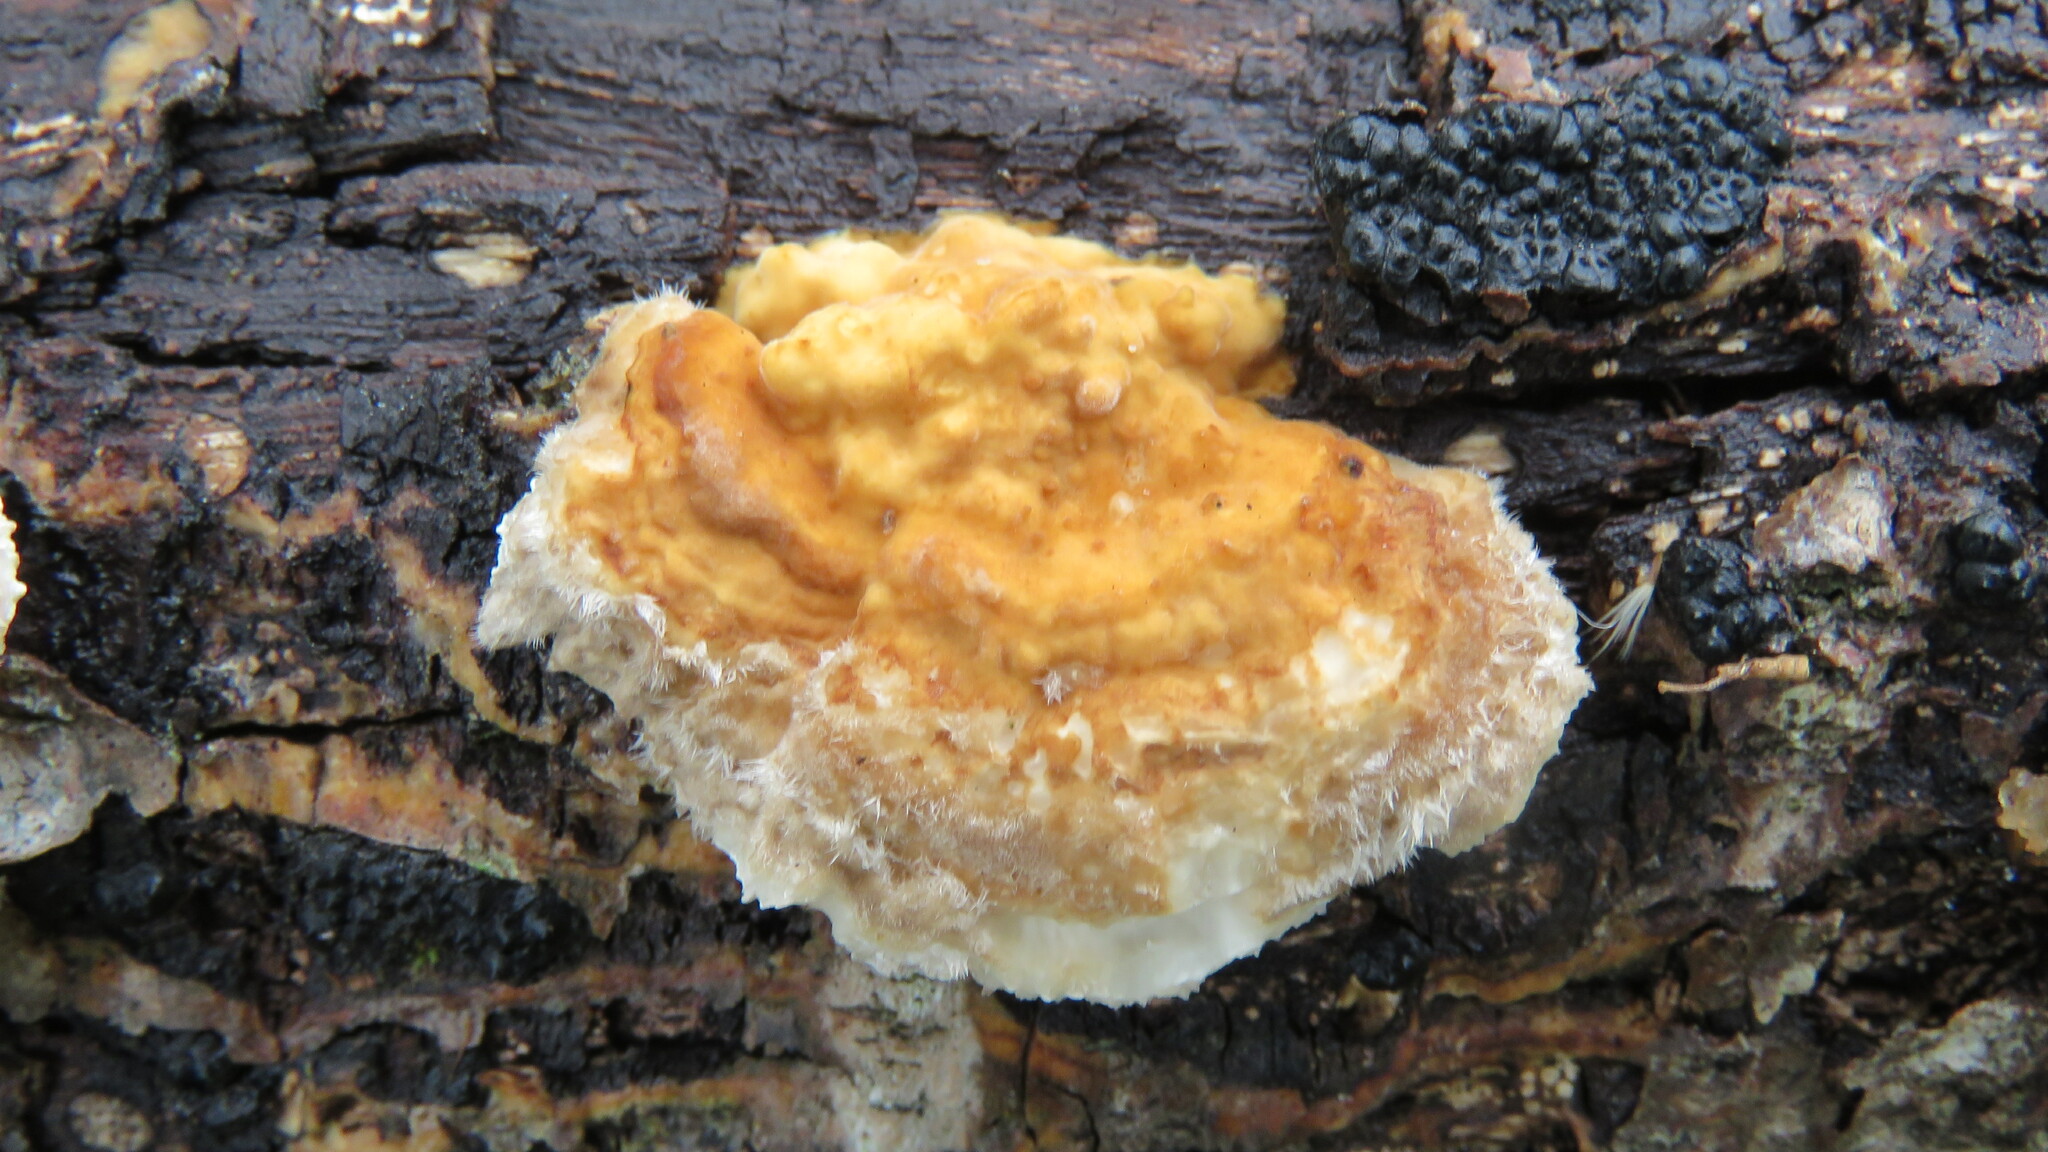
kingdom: Fungi
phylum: Basidiomycota
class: Agaricomycetes
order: Polyporales
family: Irpicaceae
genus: Trametopsis
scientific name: Trametopsis cervina
